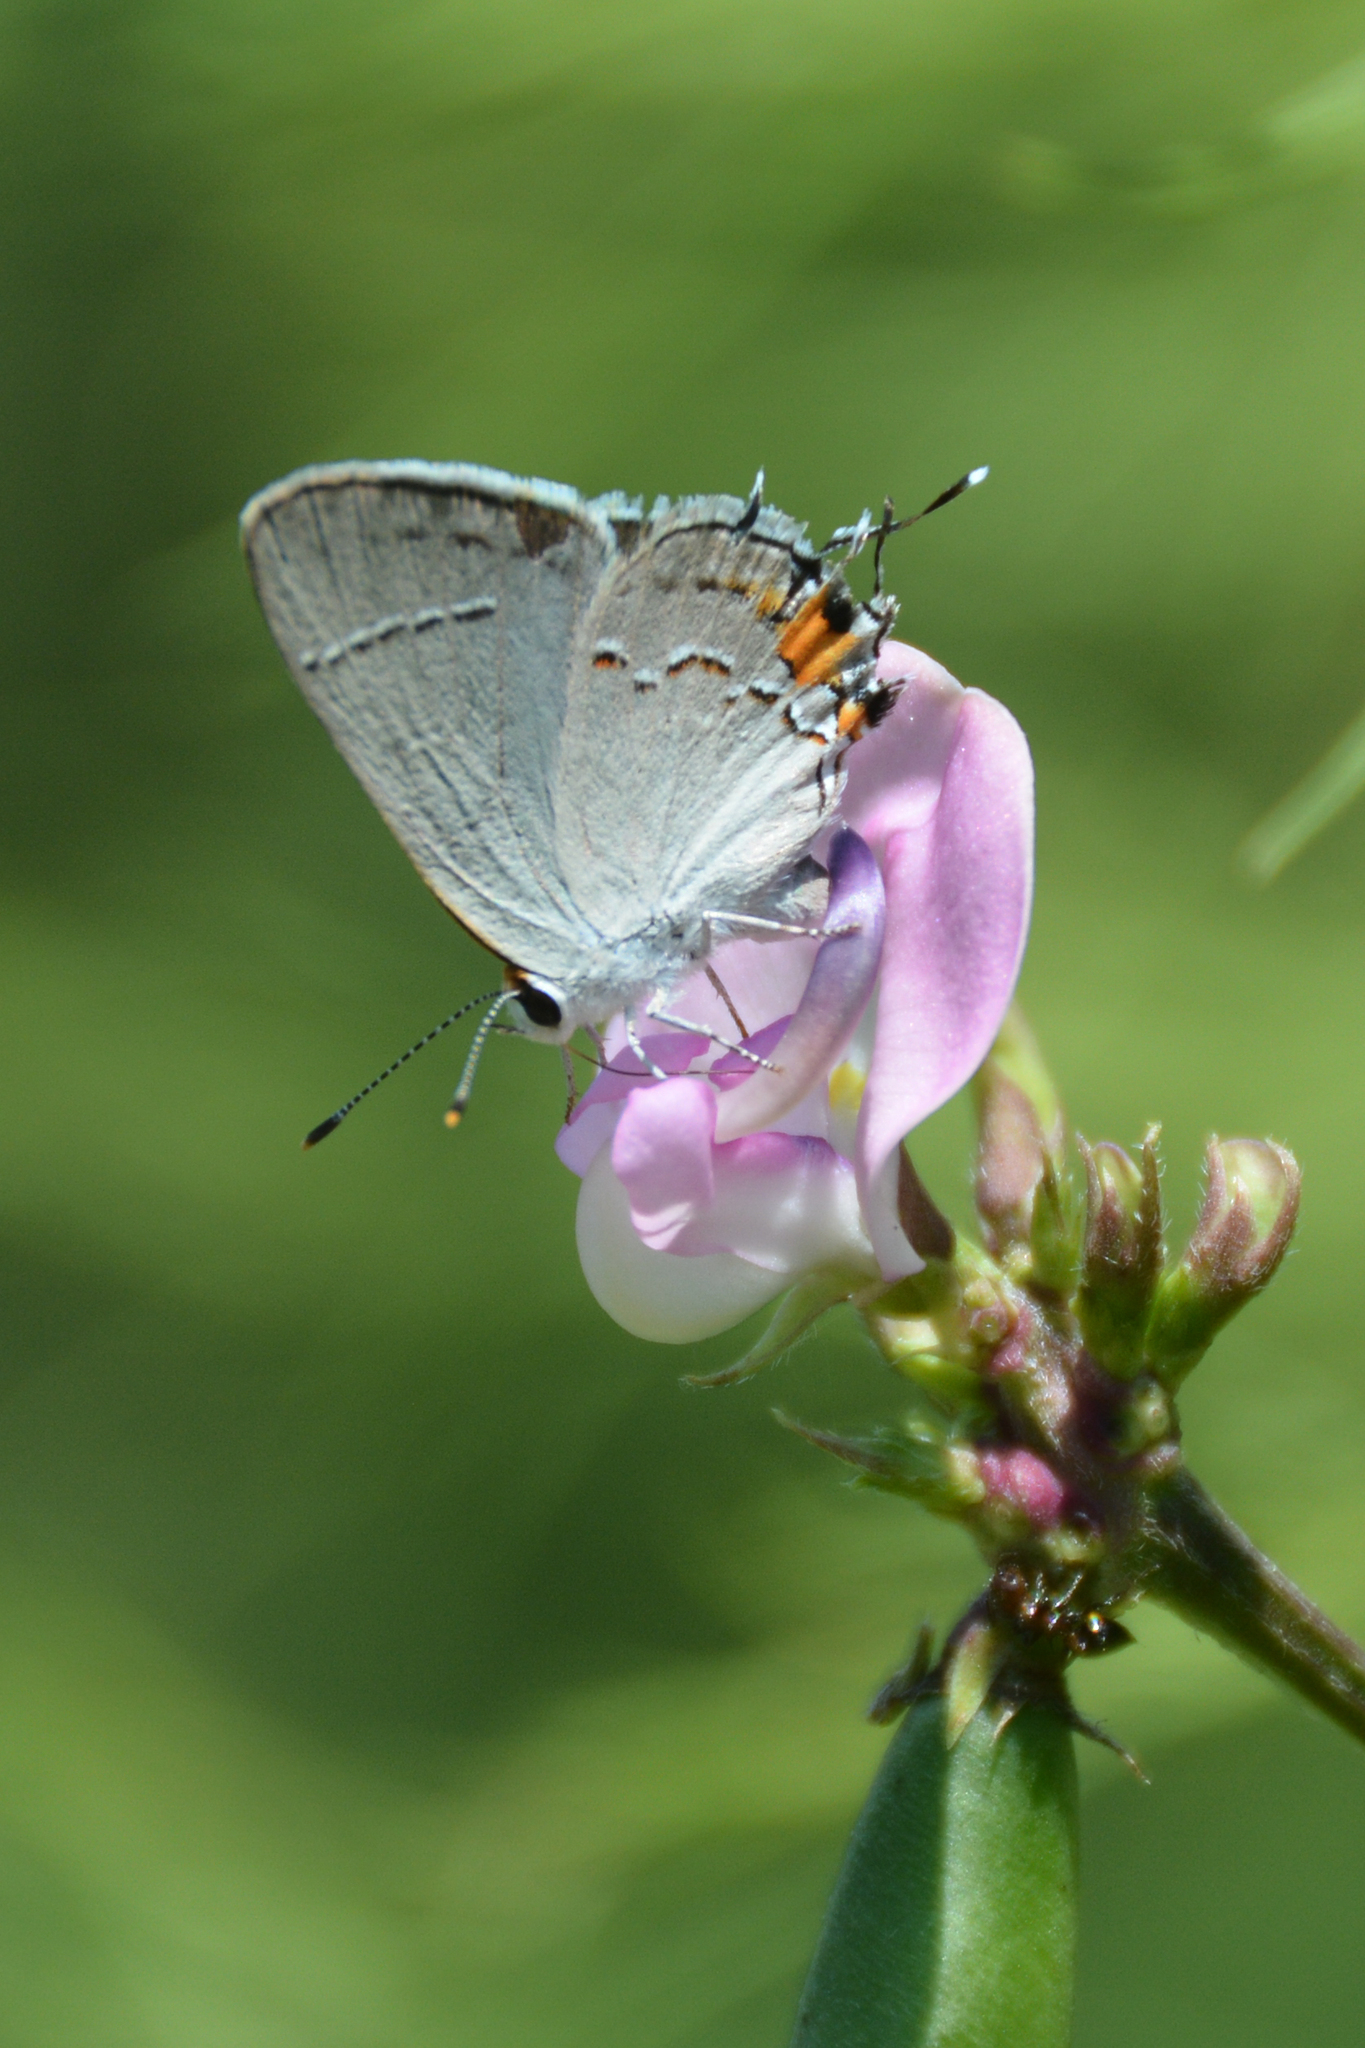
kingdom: Animalia
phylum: Arthropoda
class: Insecta
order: Lepidoptera
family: Lycaenidae
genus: Strymon
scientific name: Strymon melinus
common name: Gray hairstreak
